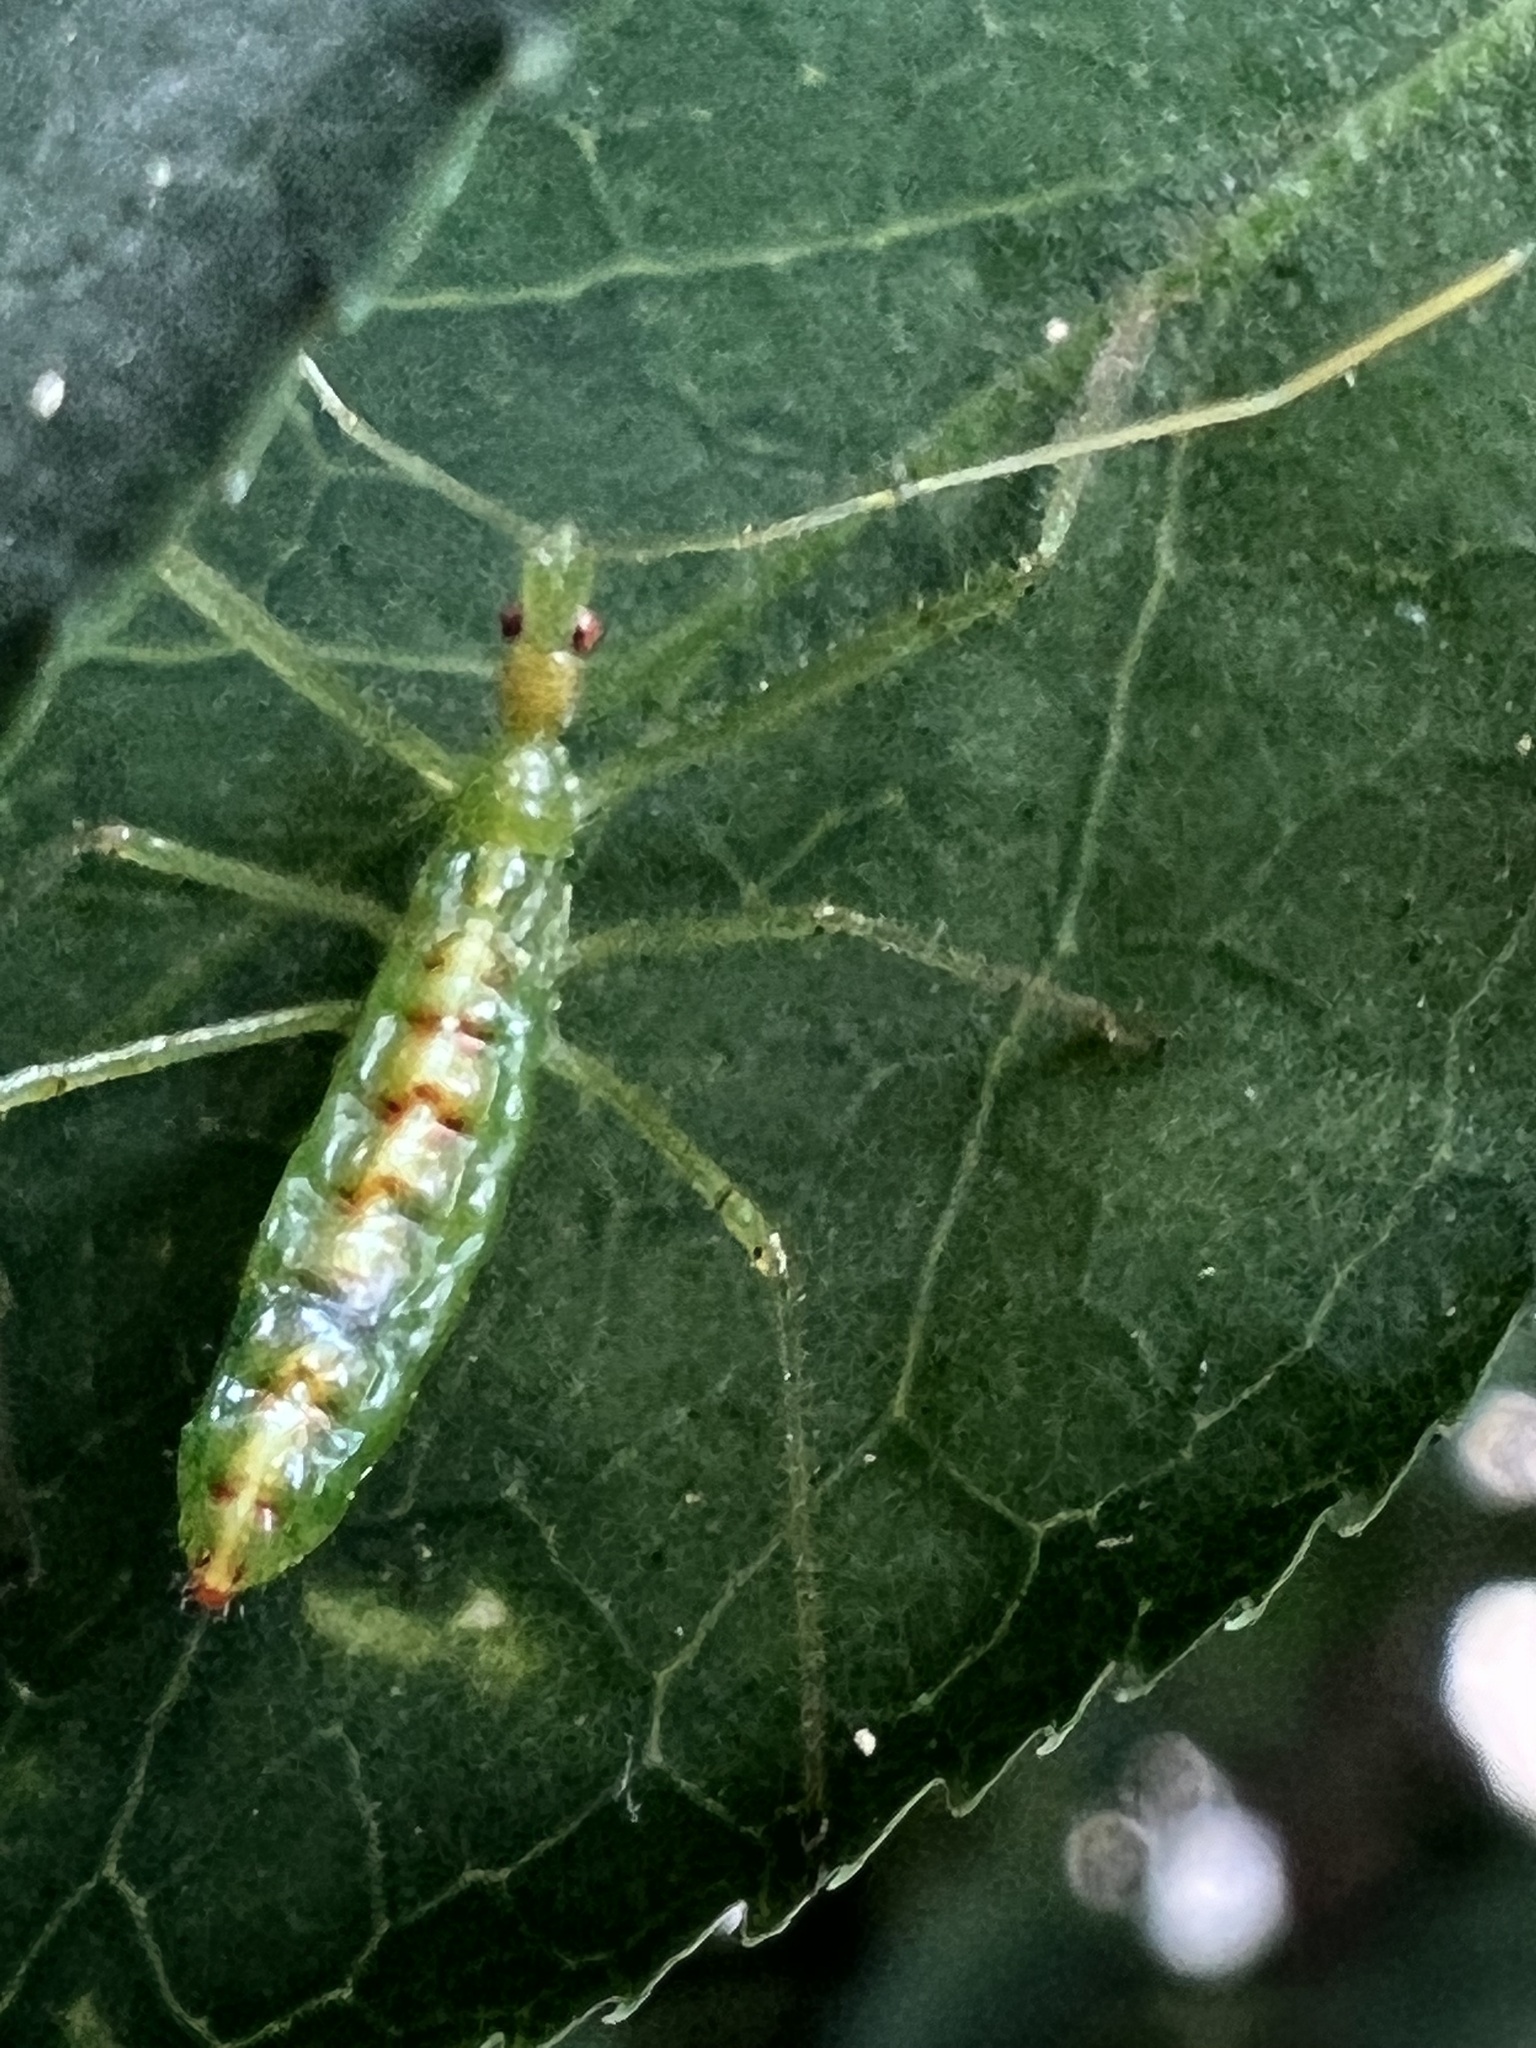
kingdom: Animalia
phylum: Arthropoda
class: Insecta
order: Hemiptera
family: Reduviidae
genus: Zelus
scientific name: Zelus luridus
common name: Pale green assassin bug
